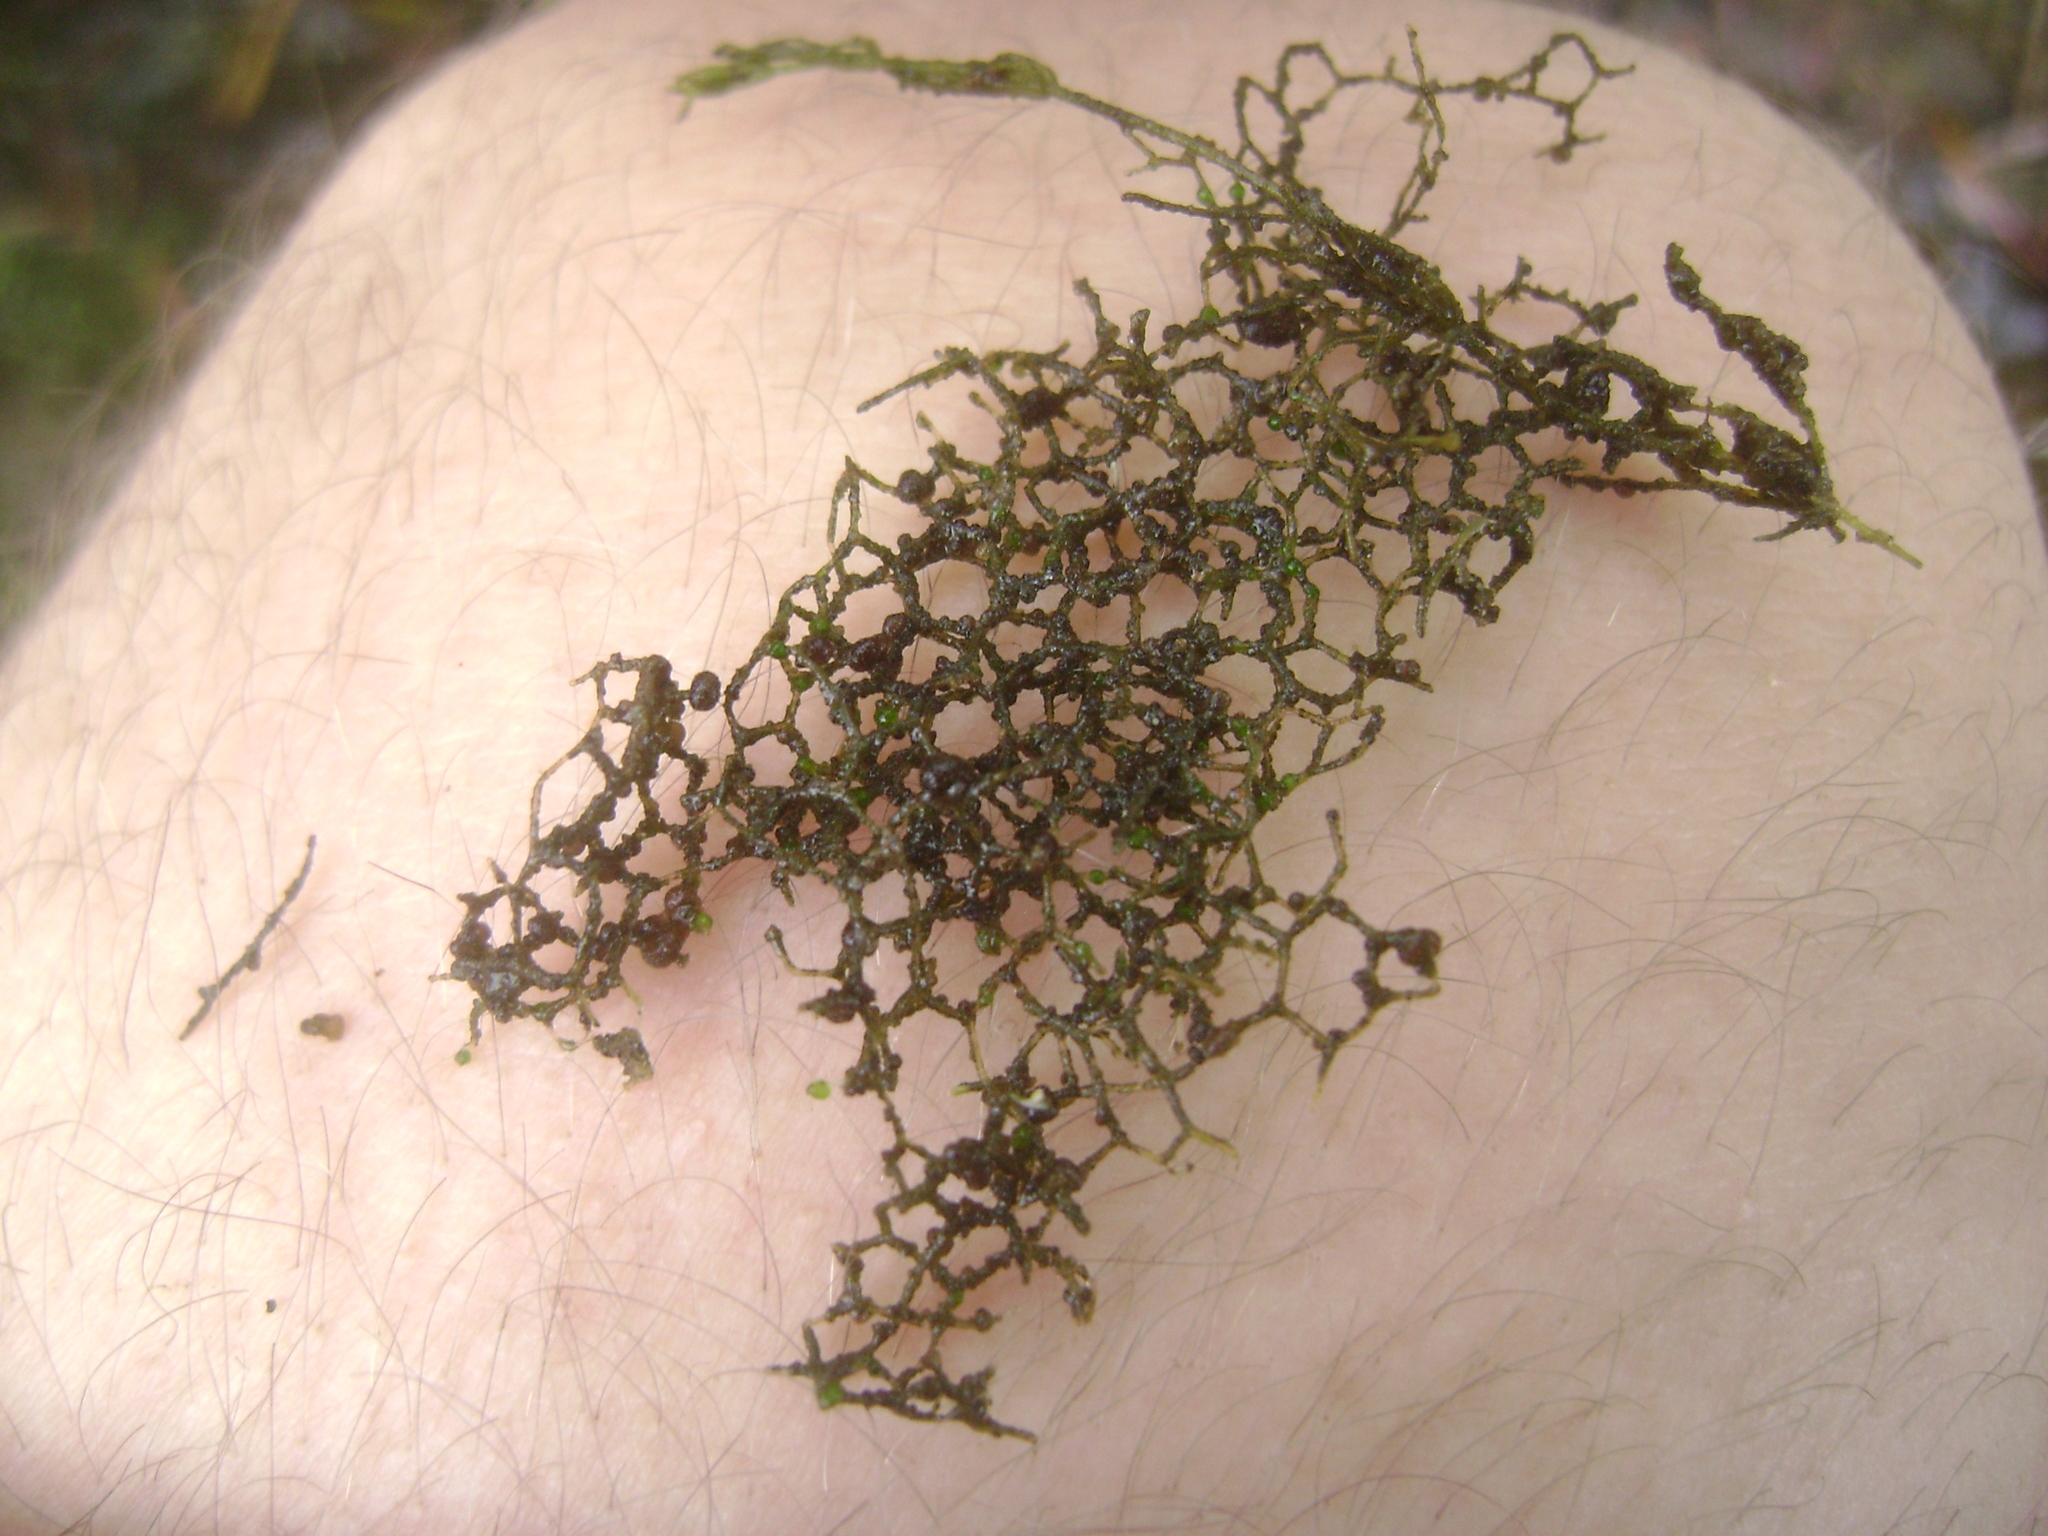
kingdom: Plantae
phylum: Chlorophyta
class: Chlorophyceae
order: Sphaeropleales
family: Hydrodictyaceae
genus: Hydrodictyon
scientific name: Hydrodictyon reticulatum
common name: Water net
